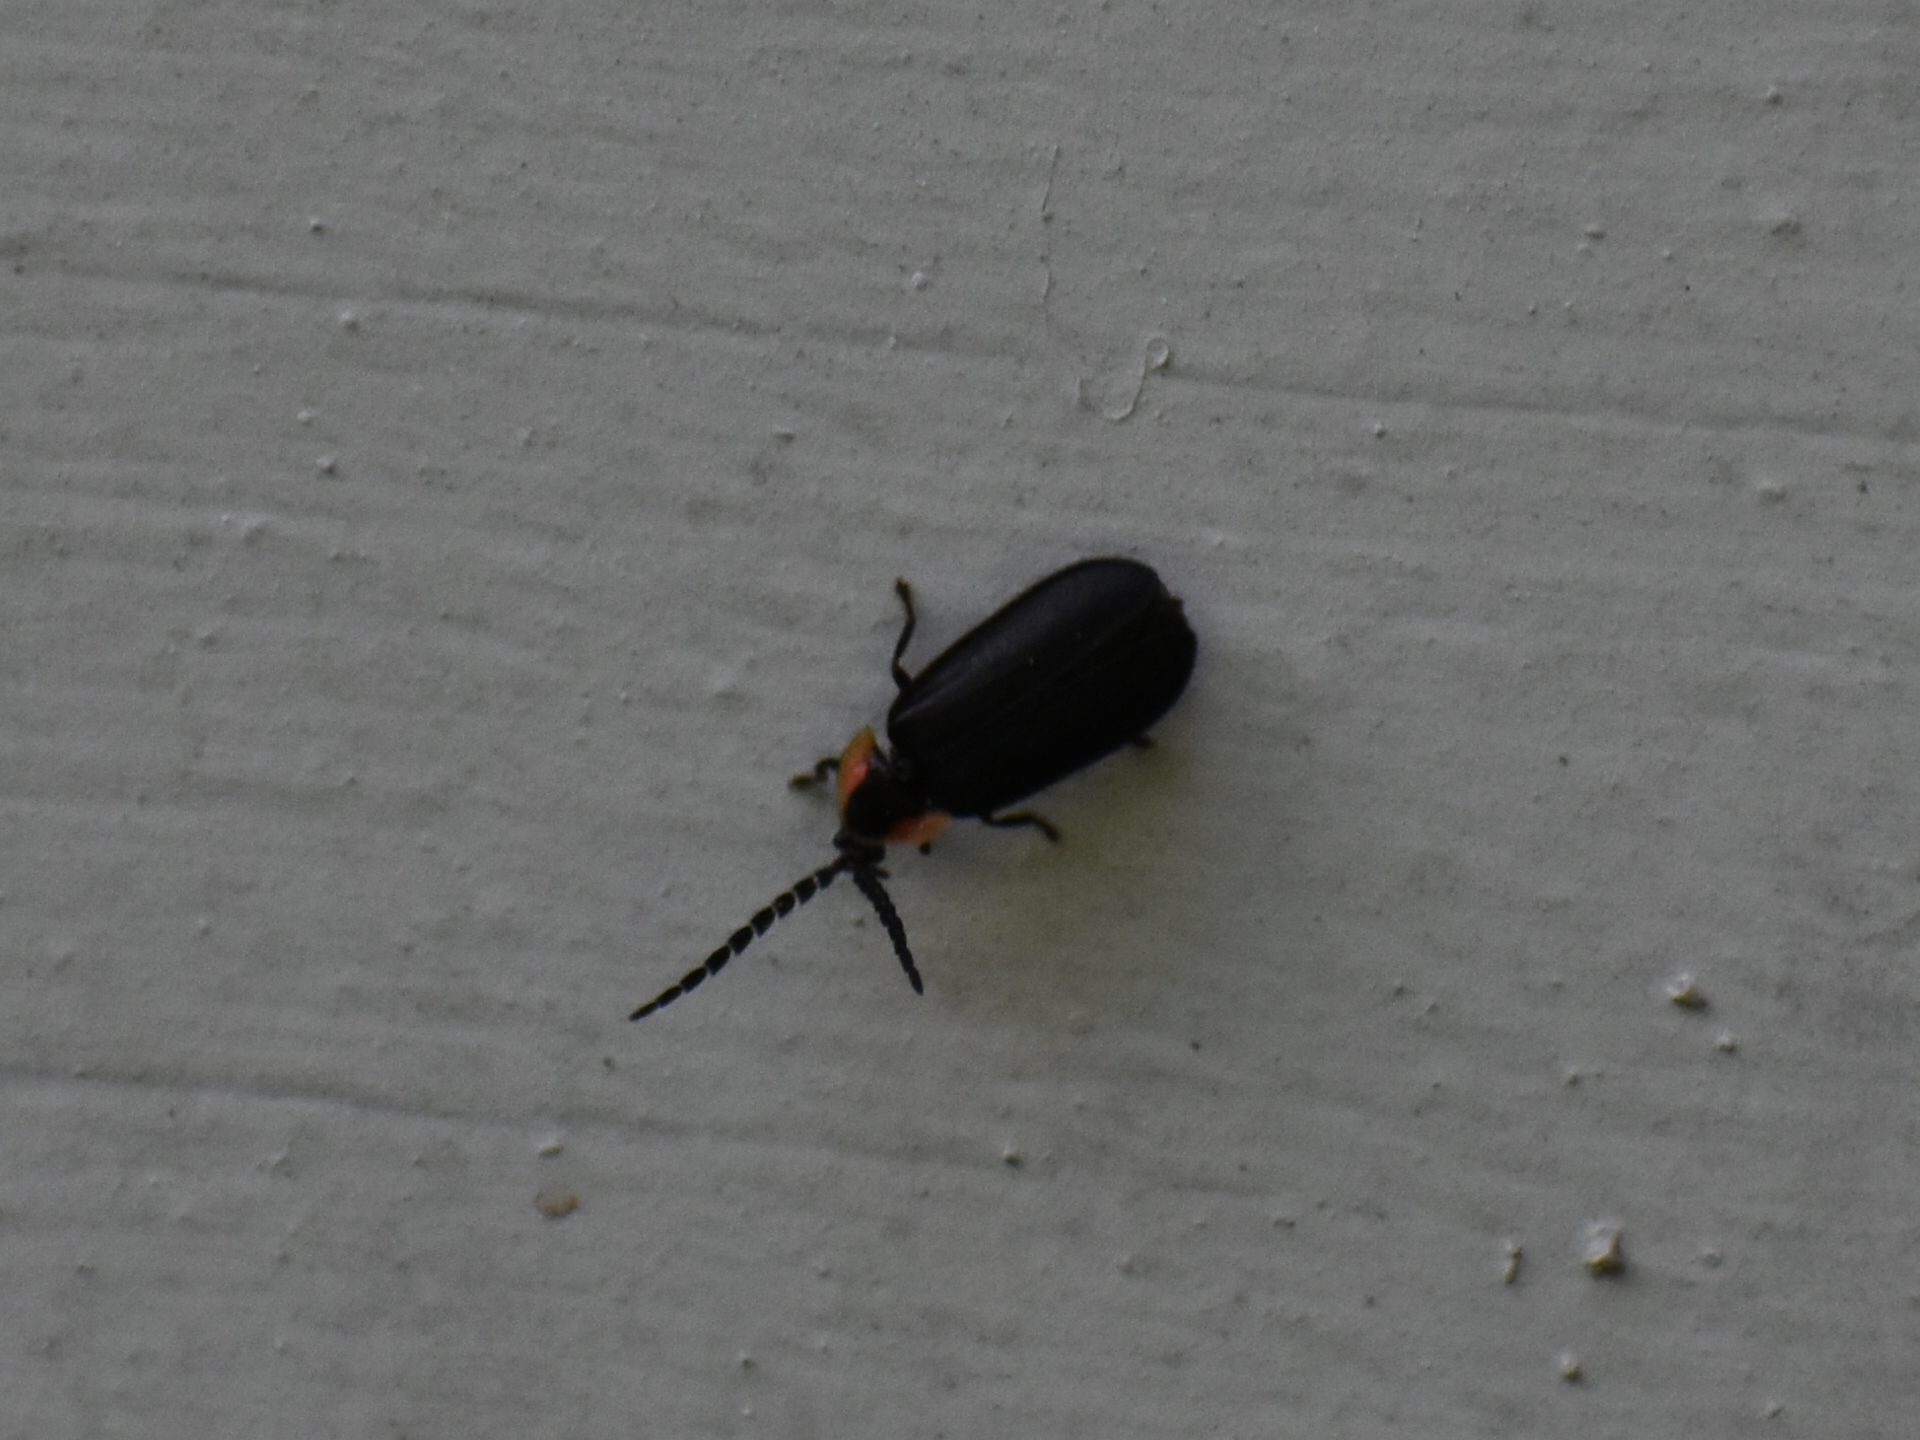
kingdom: Animalia
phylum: Arthropoda
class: Insecta
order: Coleoptera
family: Lampyridae
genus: Lucidota
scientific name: Lucidota atra
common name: Black firefly
